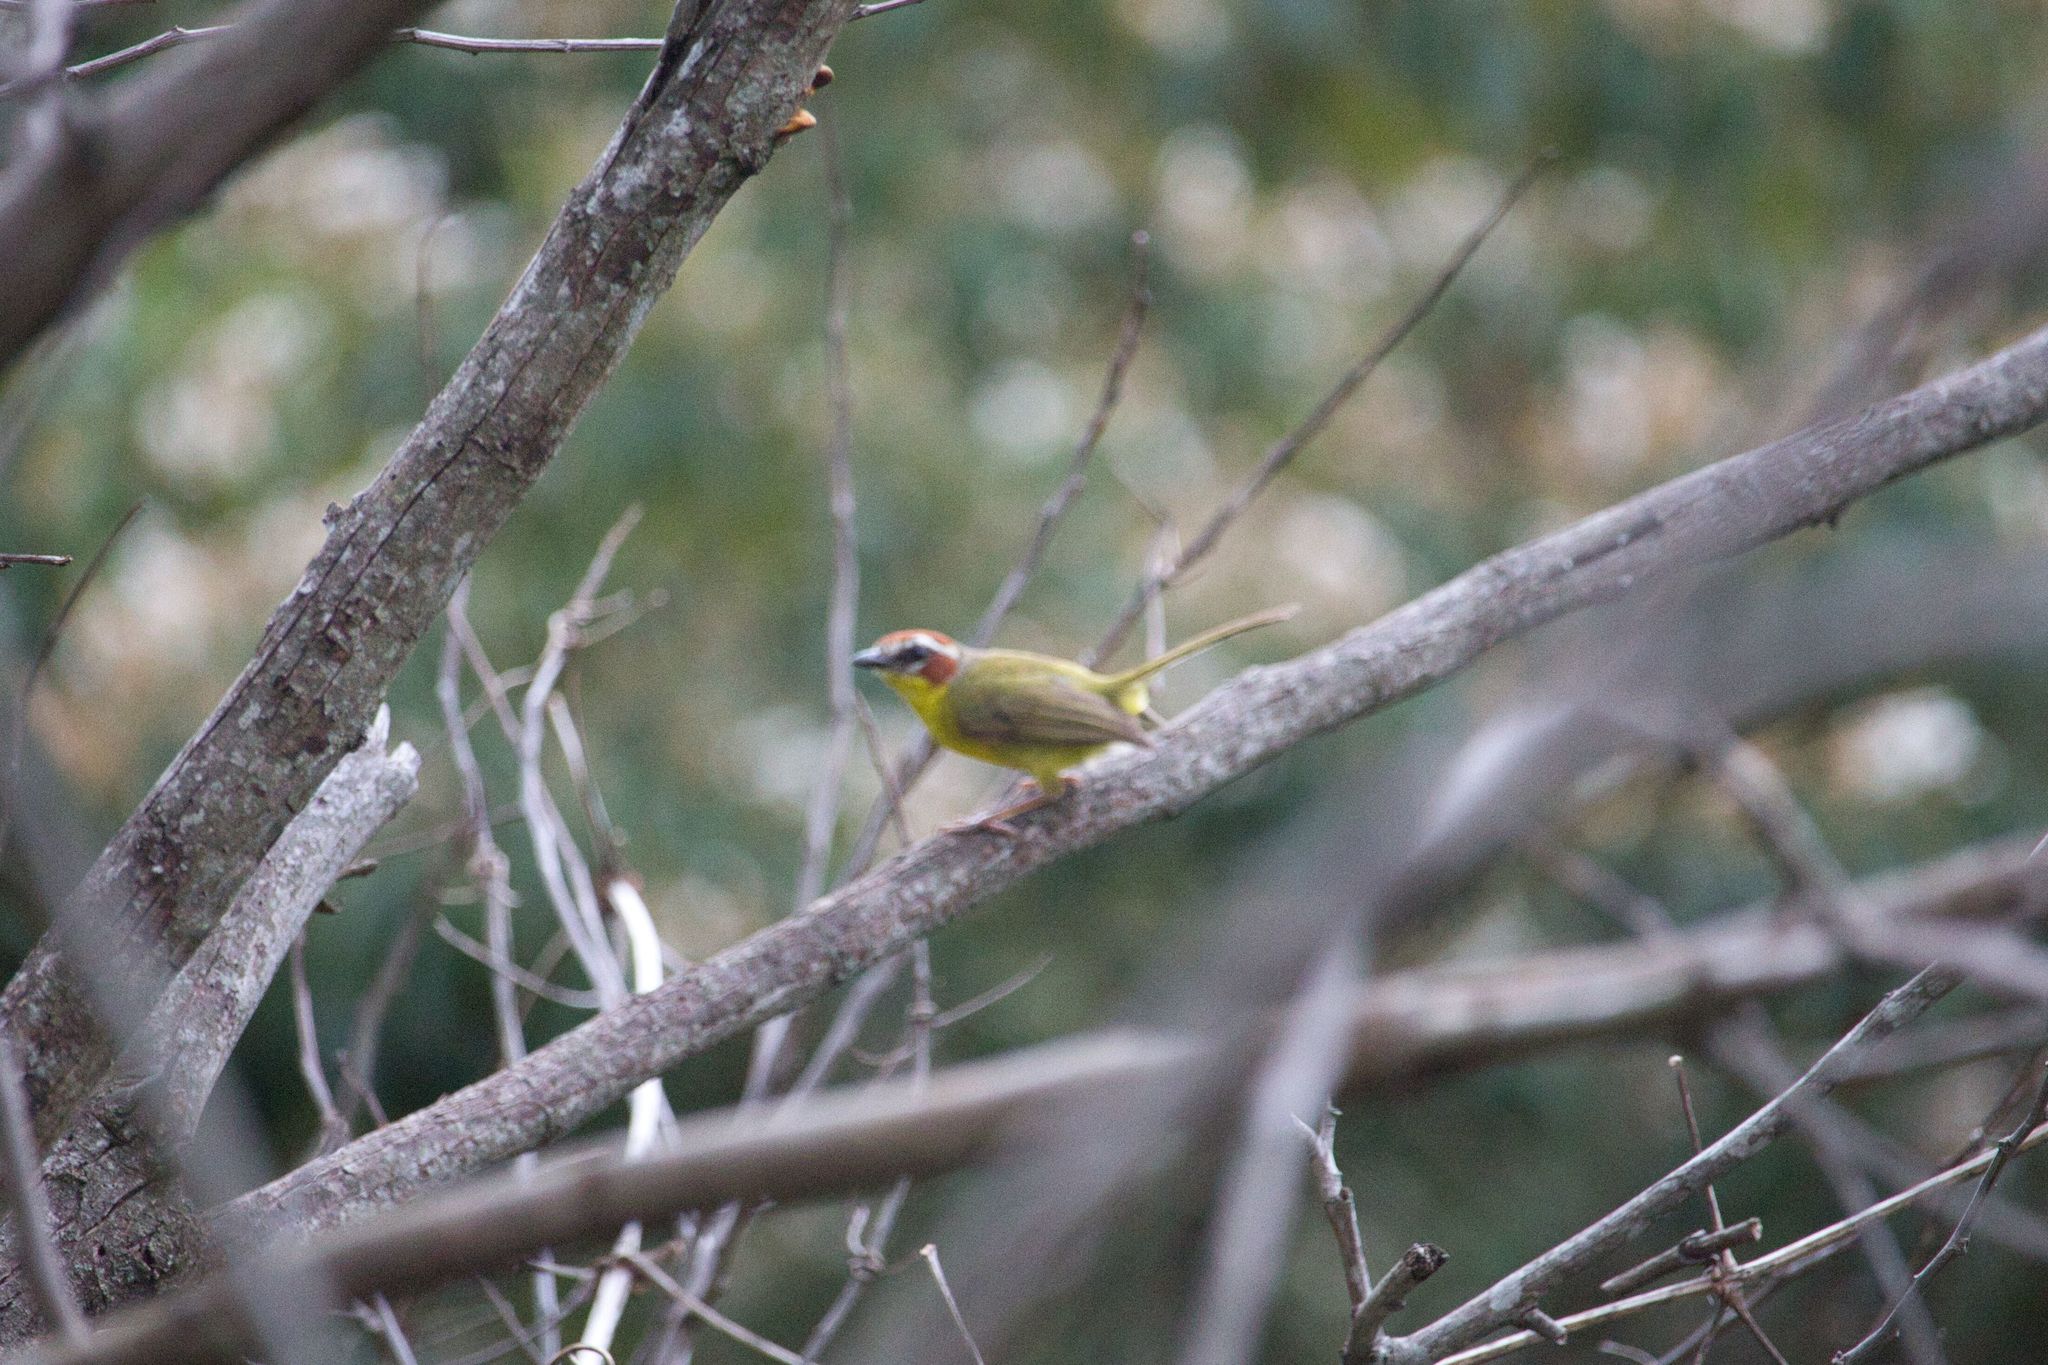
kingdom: Animalia
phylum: Chordata
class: Aves
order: Passeriformes
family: Parulidae
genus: Basileuterus
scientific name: Basileuterus rufifrons
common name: Rufous-capped warbler
